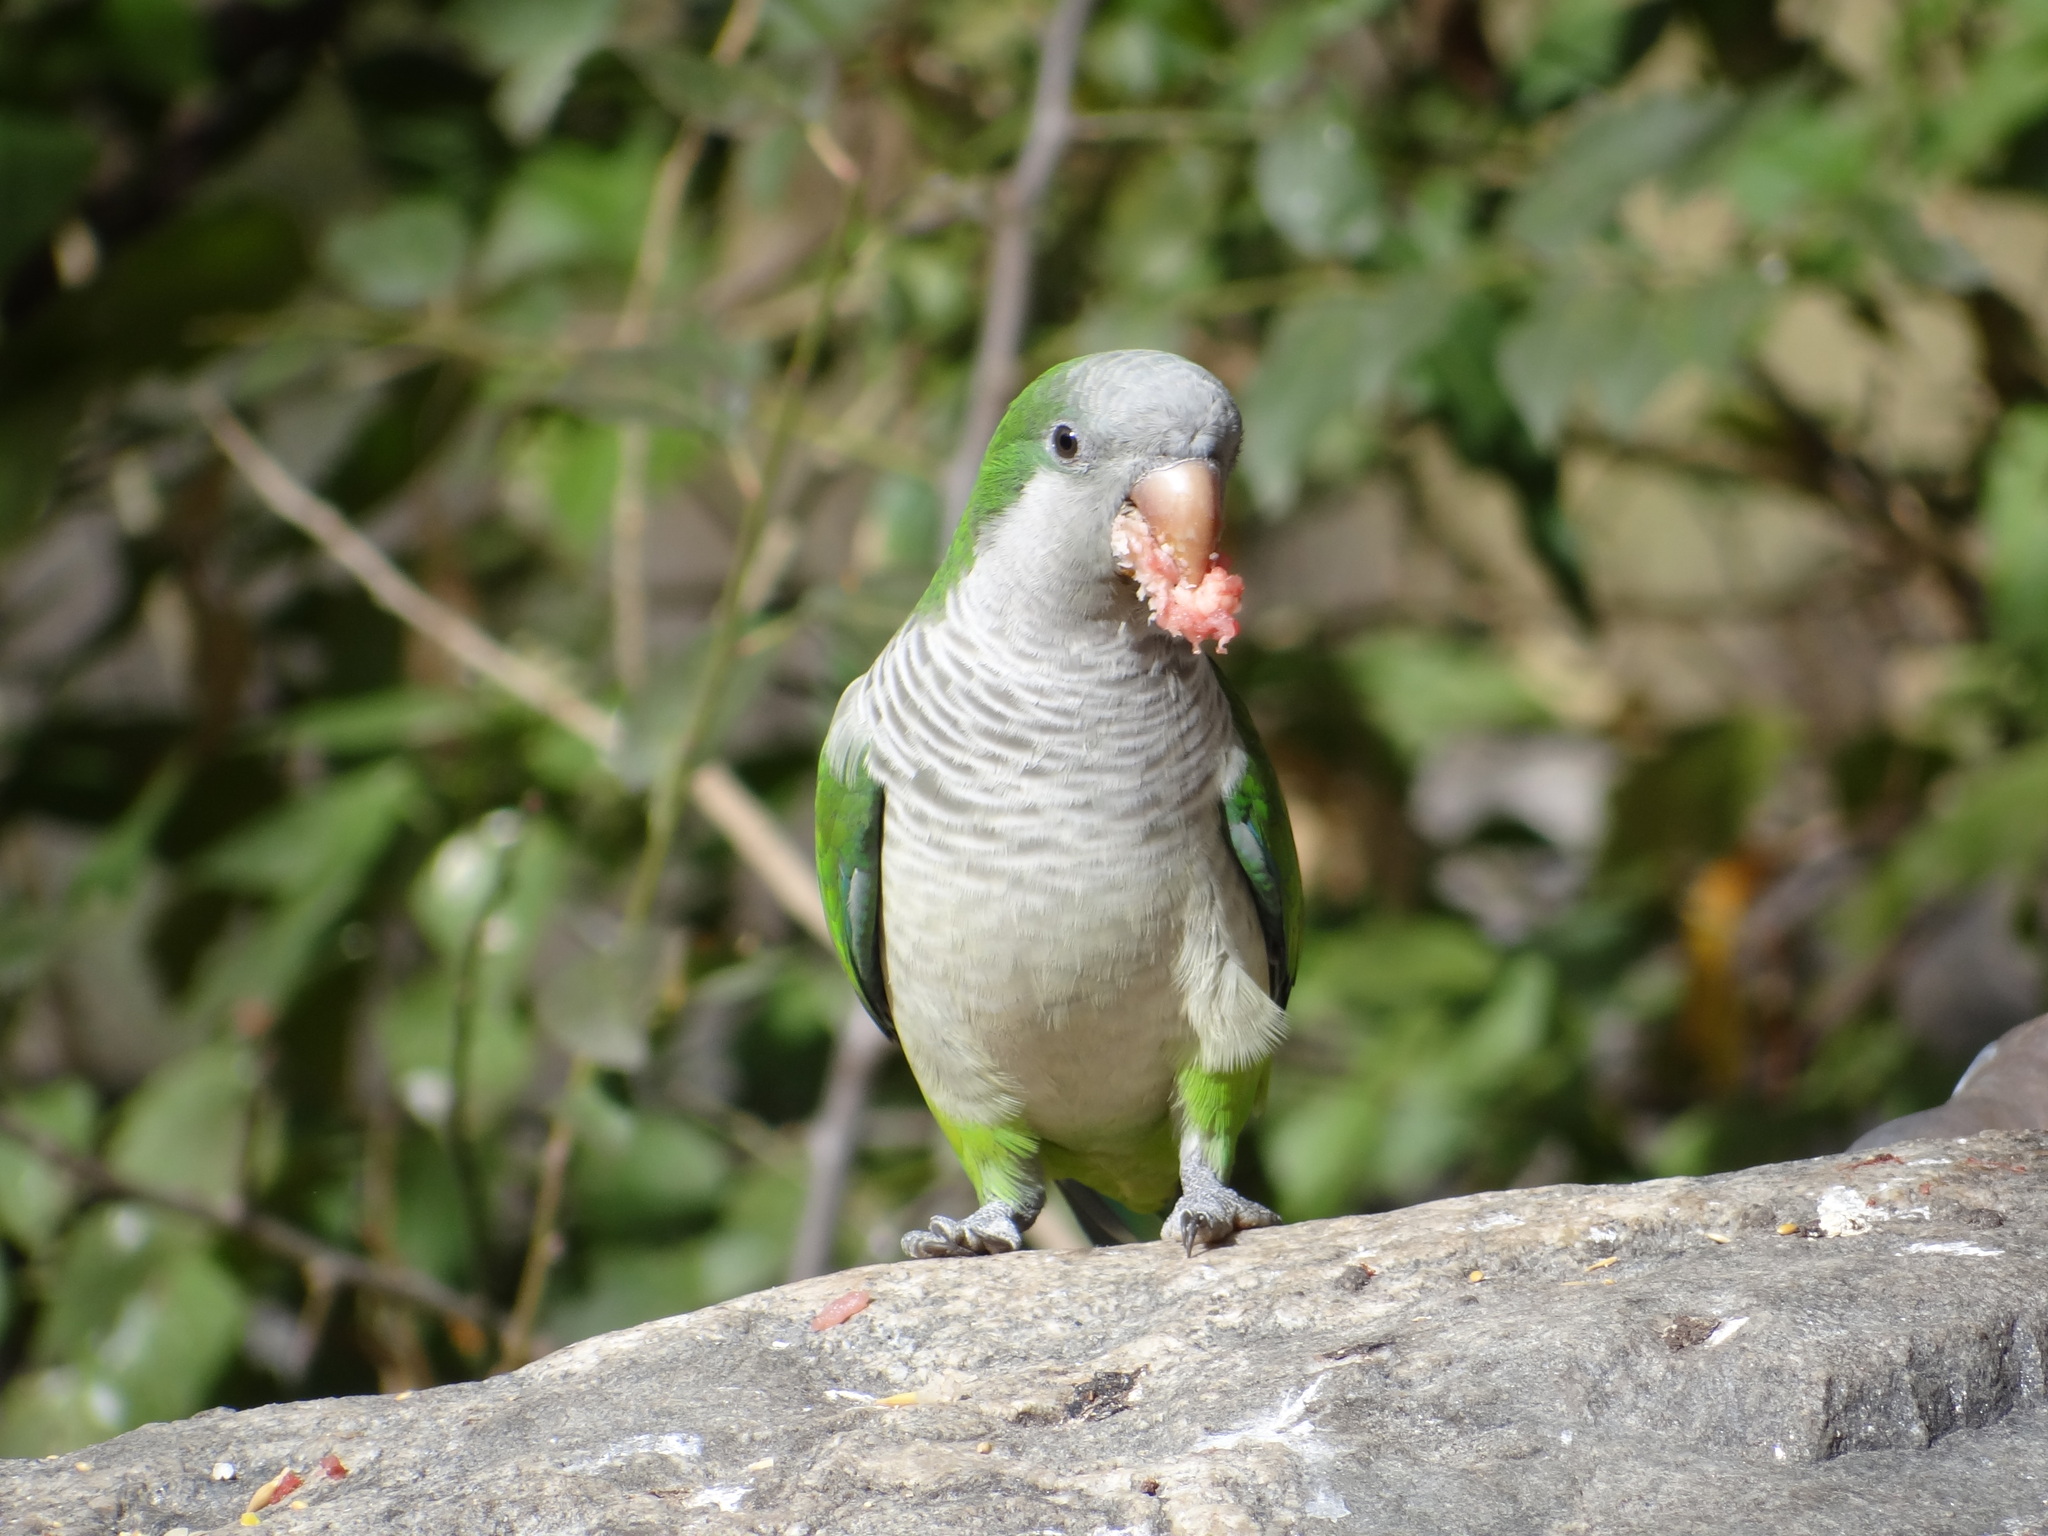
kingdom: Animalia
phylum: Chordata
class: Aves
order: Psittaciformes
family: Psittacidae
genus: Myiopsitta
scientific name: Myiopsitta monachus
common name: Monk parakeet
